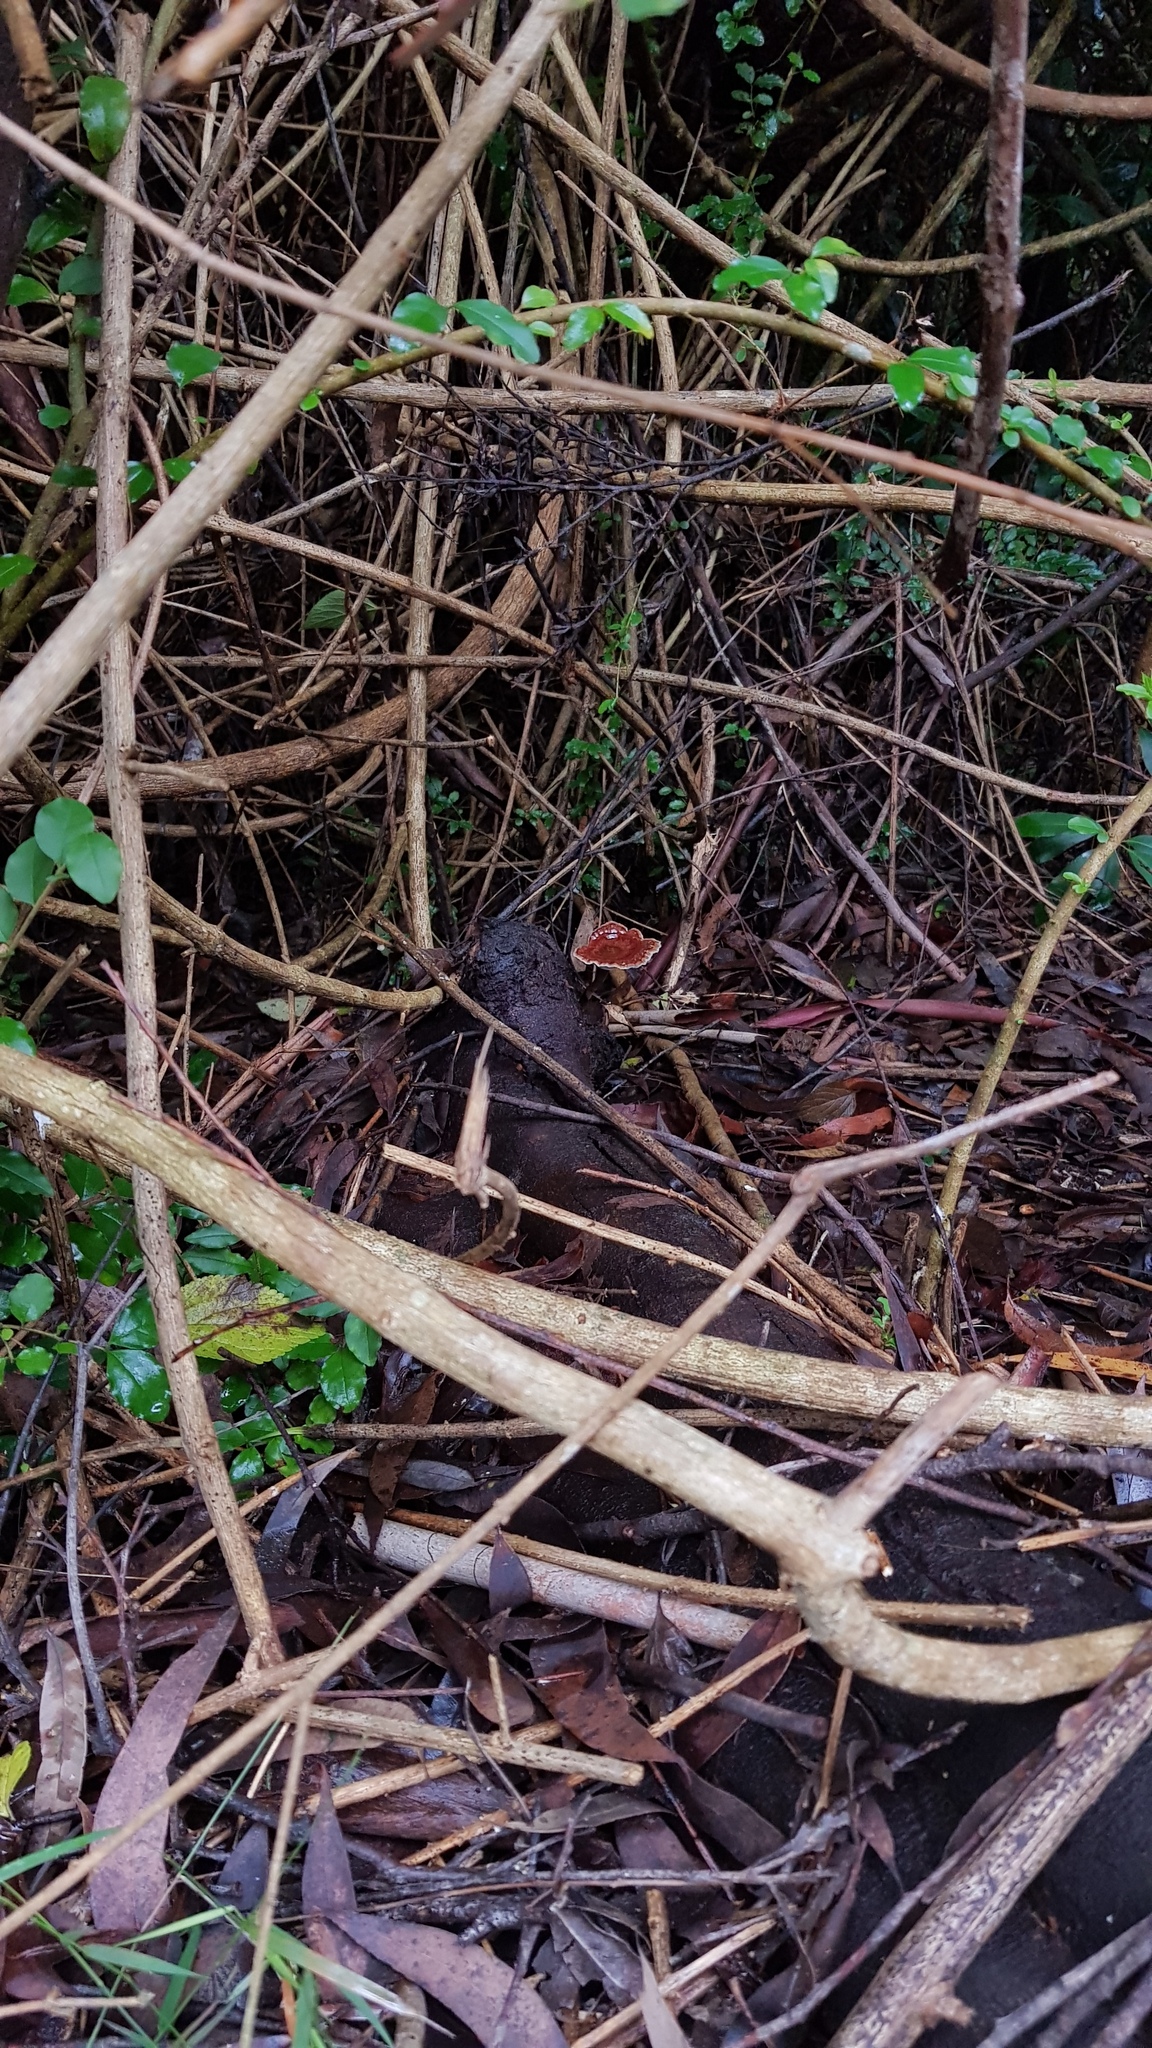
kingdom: Fungi
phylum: Basidiomycota
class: Agaricomycetes
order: Polyporales
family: Ganodermataceae
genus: Sanguinoderma
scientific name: Sanguinoderma rude
